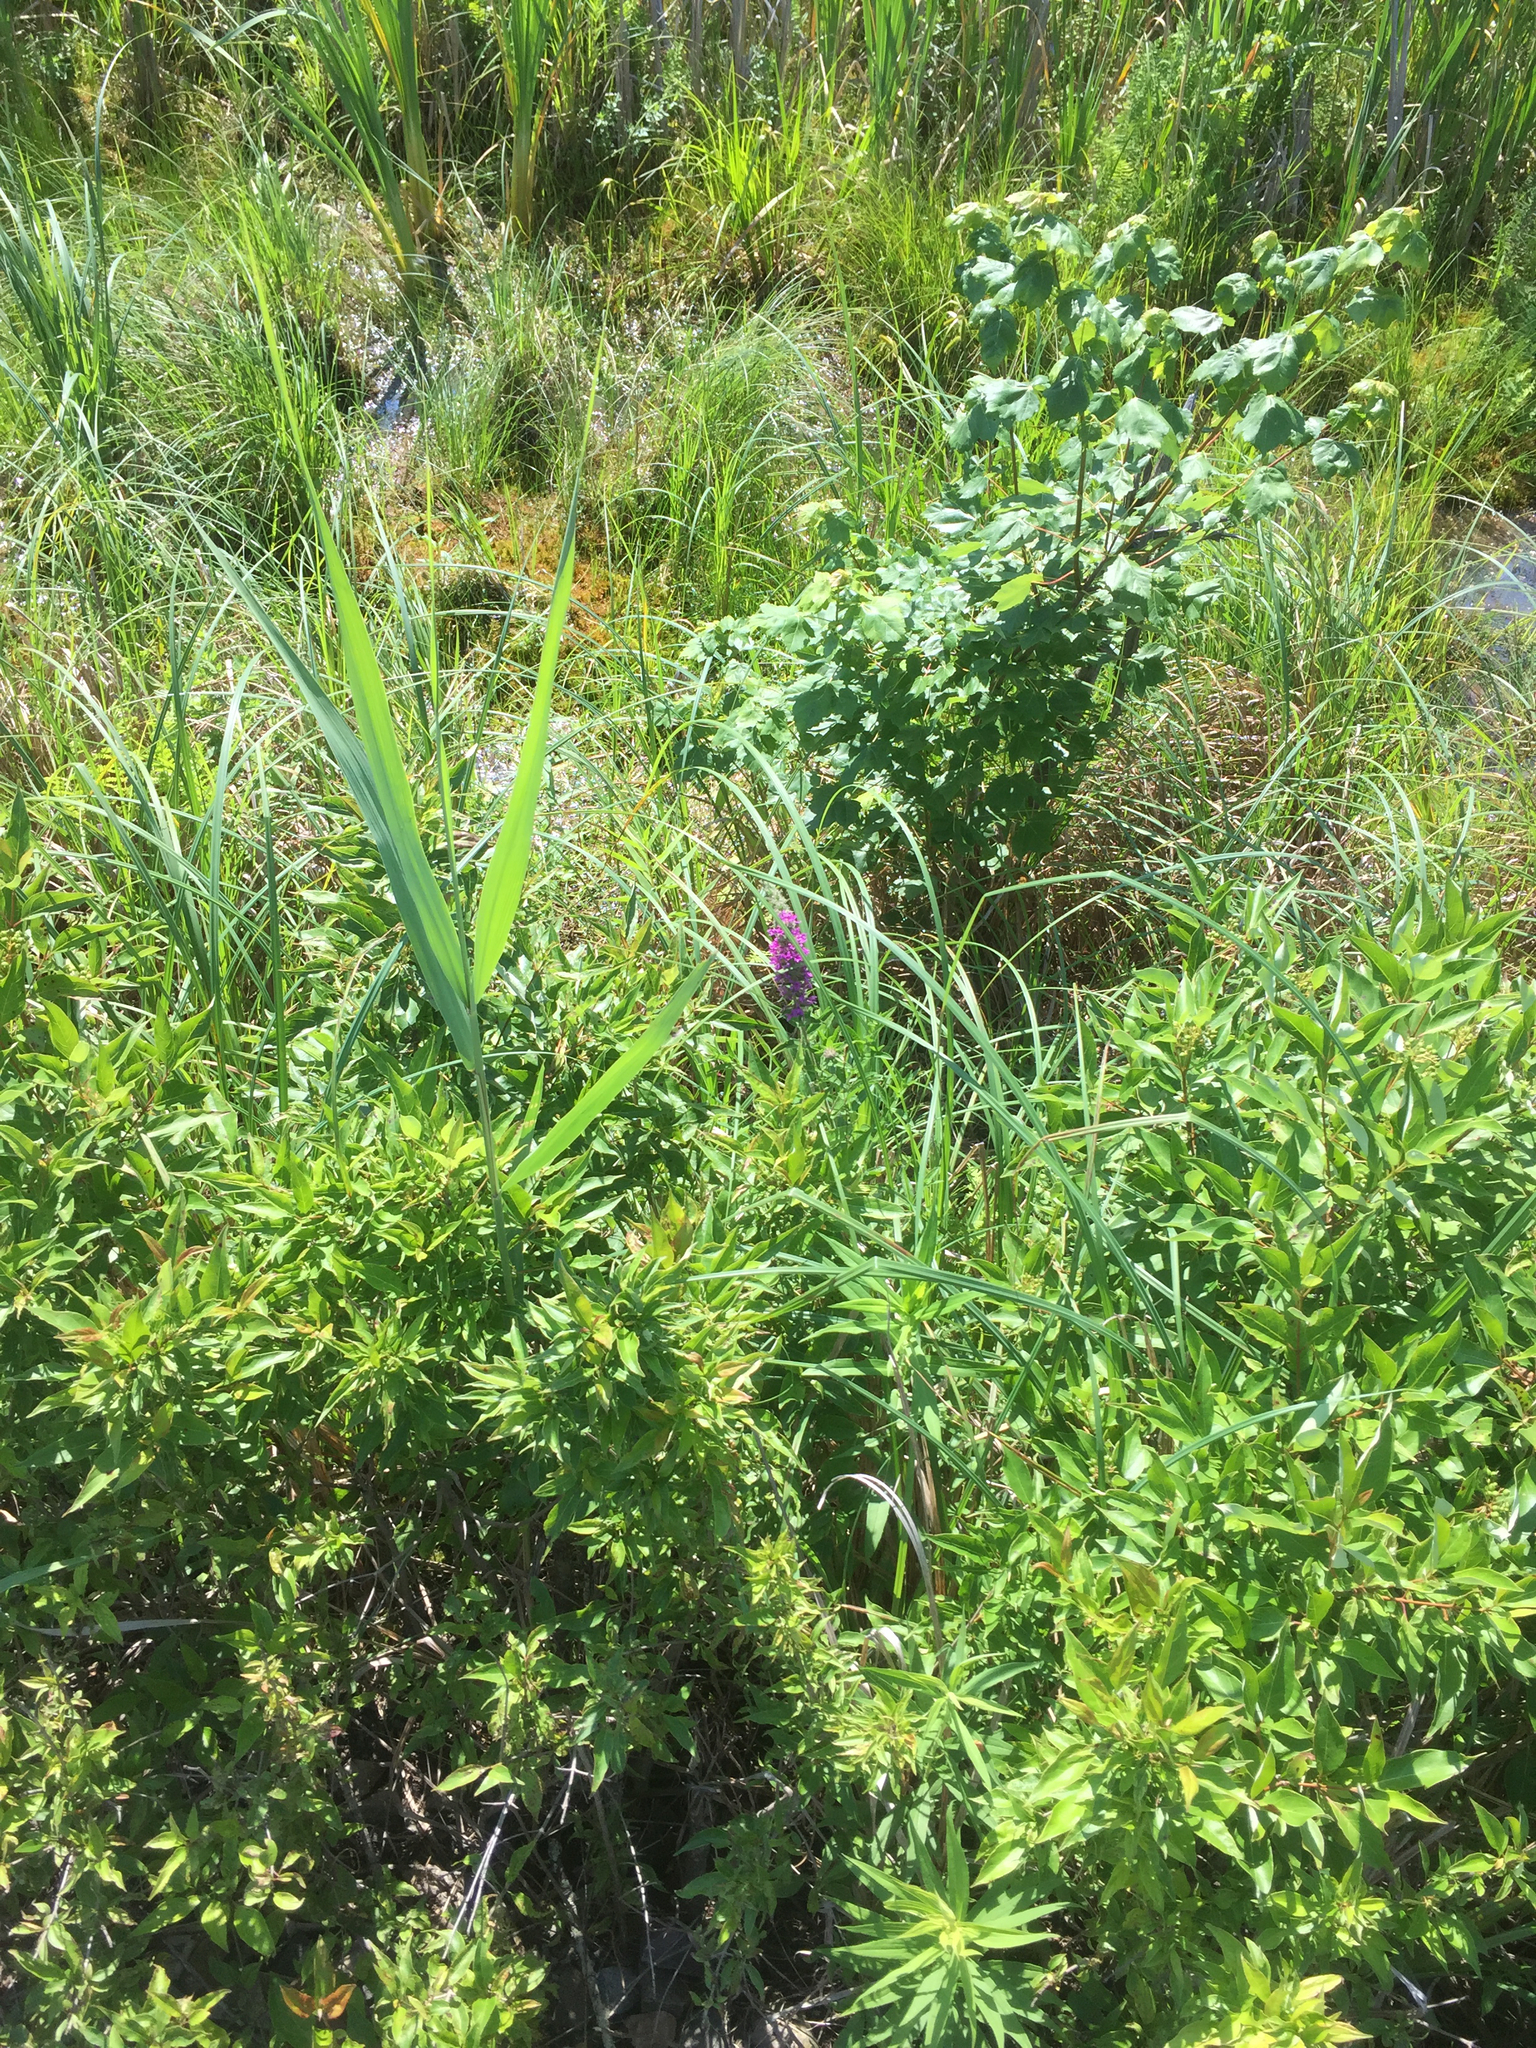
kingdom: Plantae
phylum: Tracheophyta
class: Magnoliopsida
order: Myrtales
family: Lythraceae
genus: Lythrum
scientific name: Lythrum salicaria
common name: Purple loosestrife
